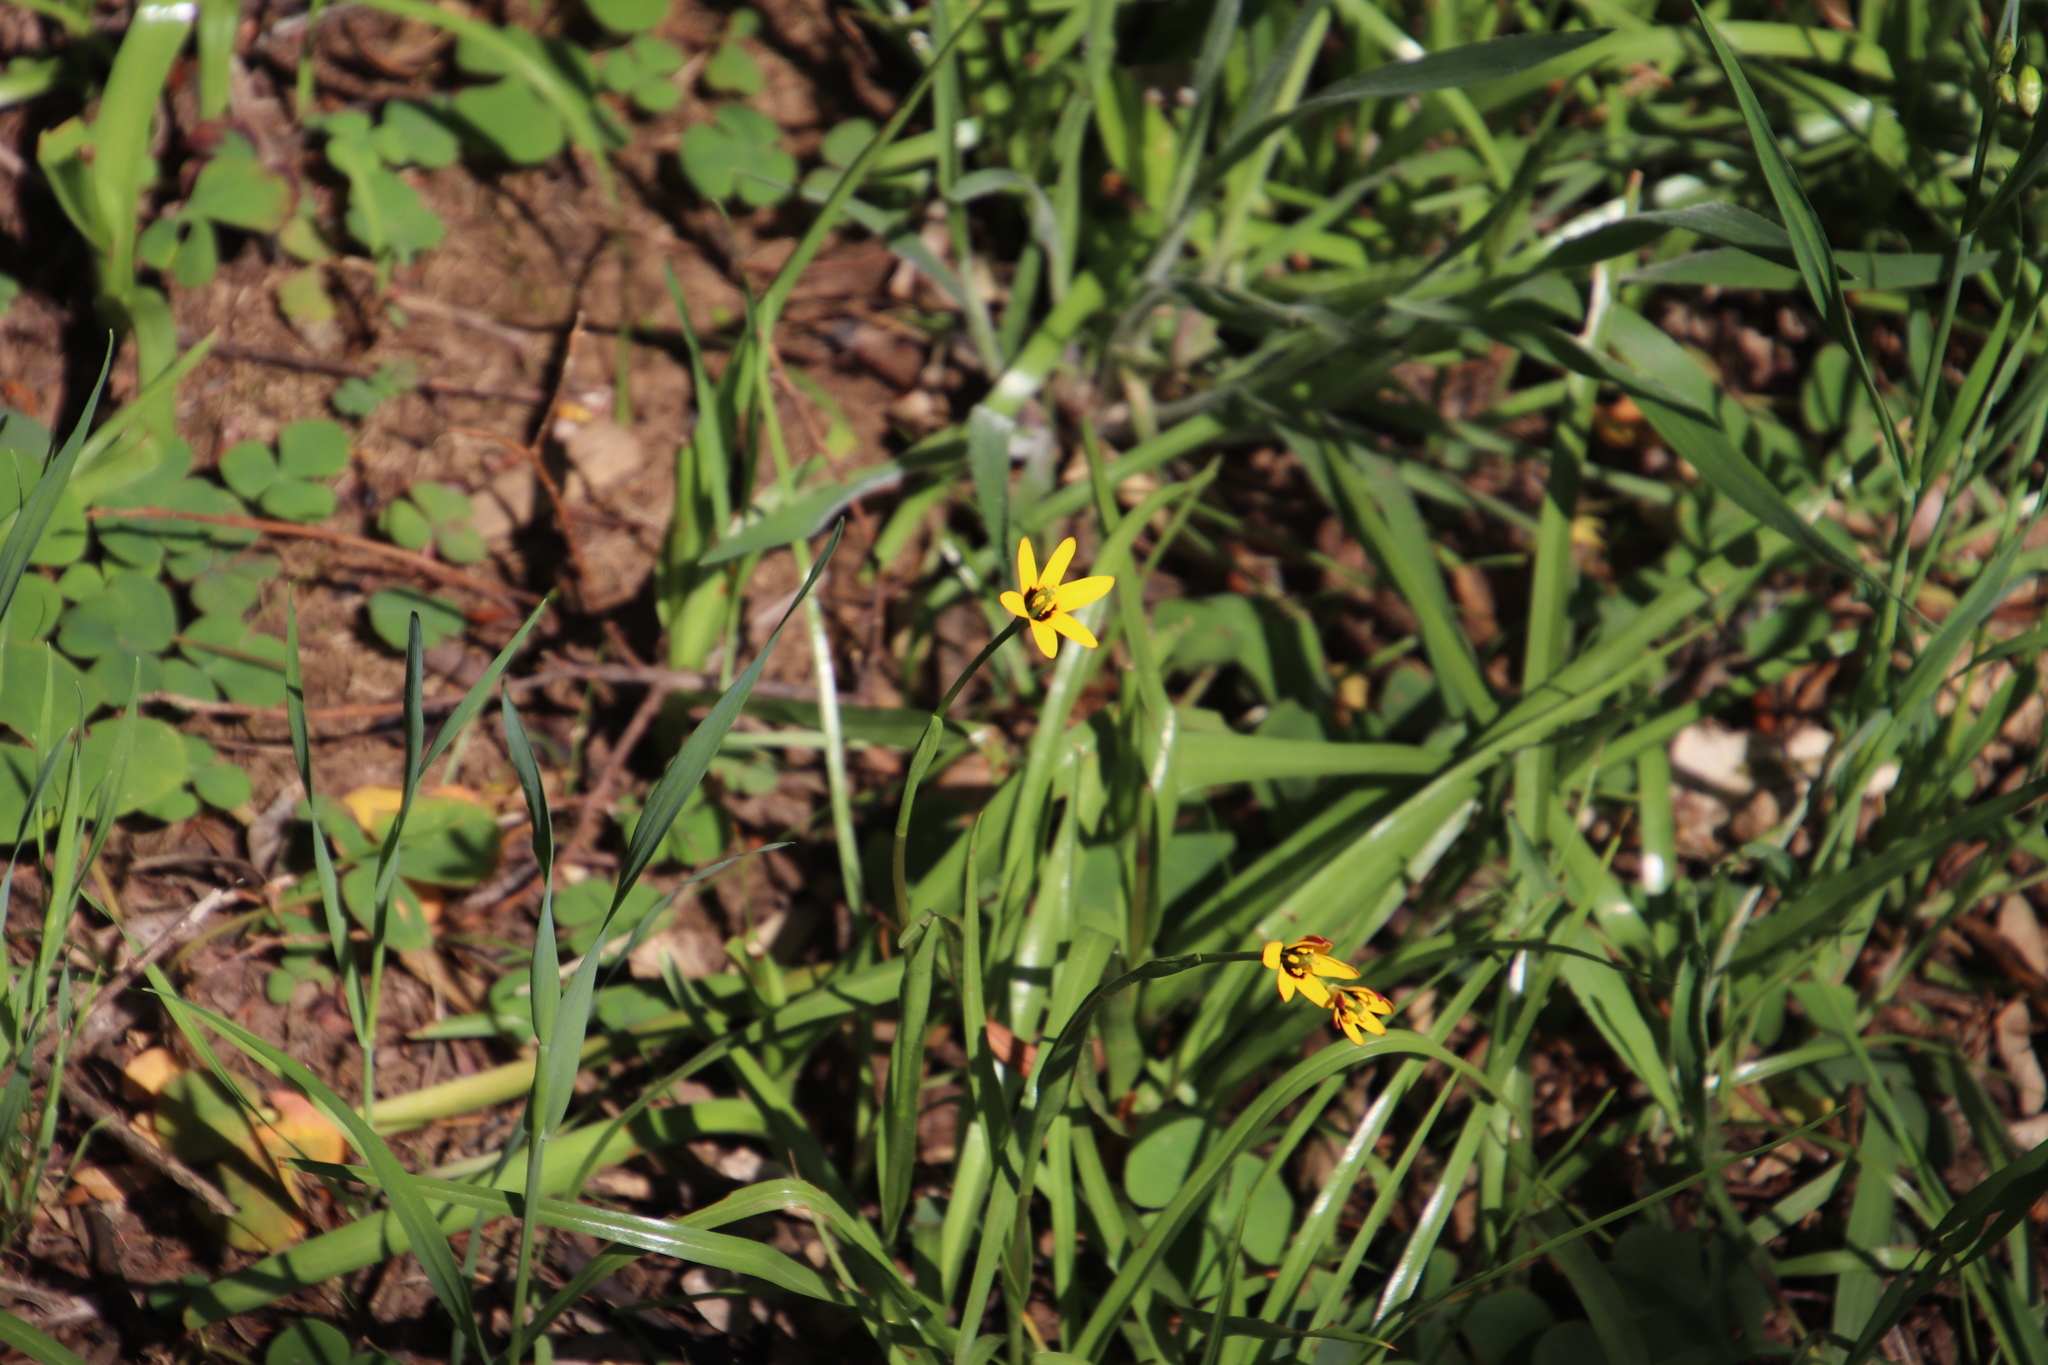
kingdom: Plantae
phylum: Tracheophyta
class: Liliopsida
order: Liliales
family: Colchicaceae
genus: Baeometra
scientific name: Baeometra uniflora
